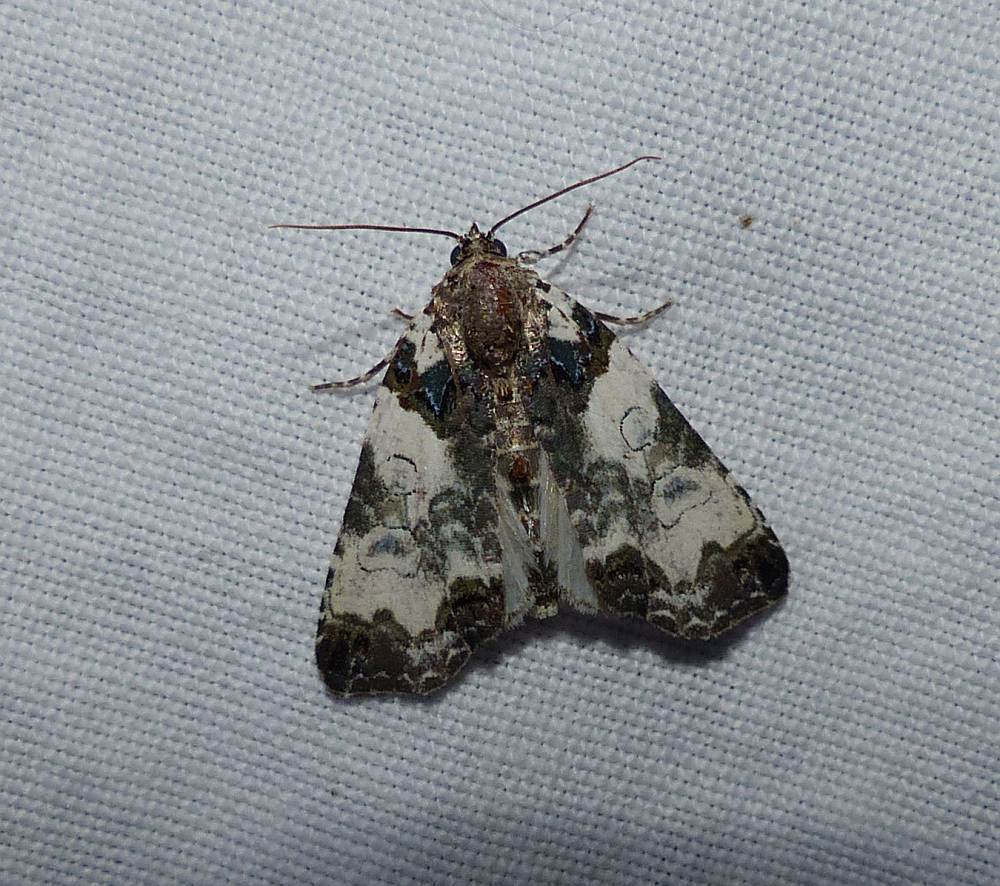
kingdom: Animalia
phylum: Arthropoda
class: Insecta
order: Lepidoptera
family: Noctuidae
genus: Cerma
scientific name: Cerma cerintha
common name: Tufted bird-dropping moth
